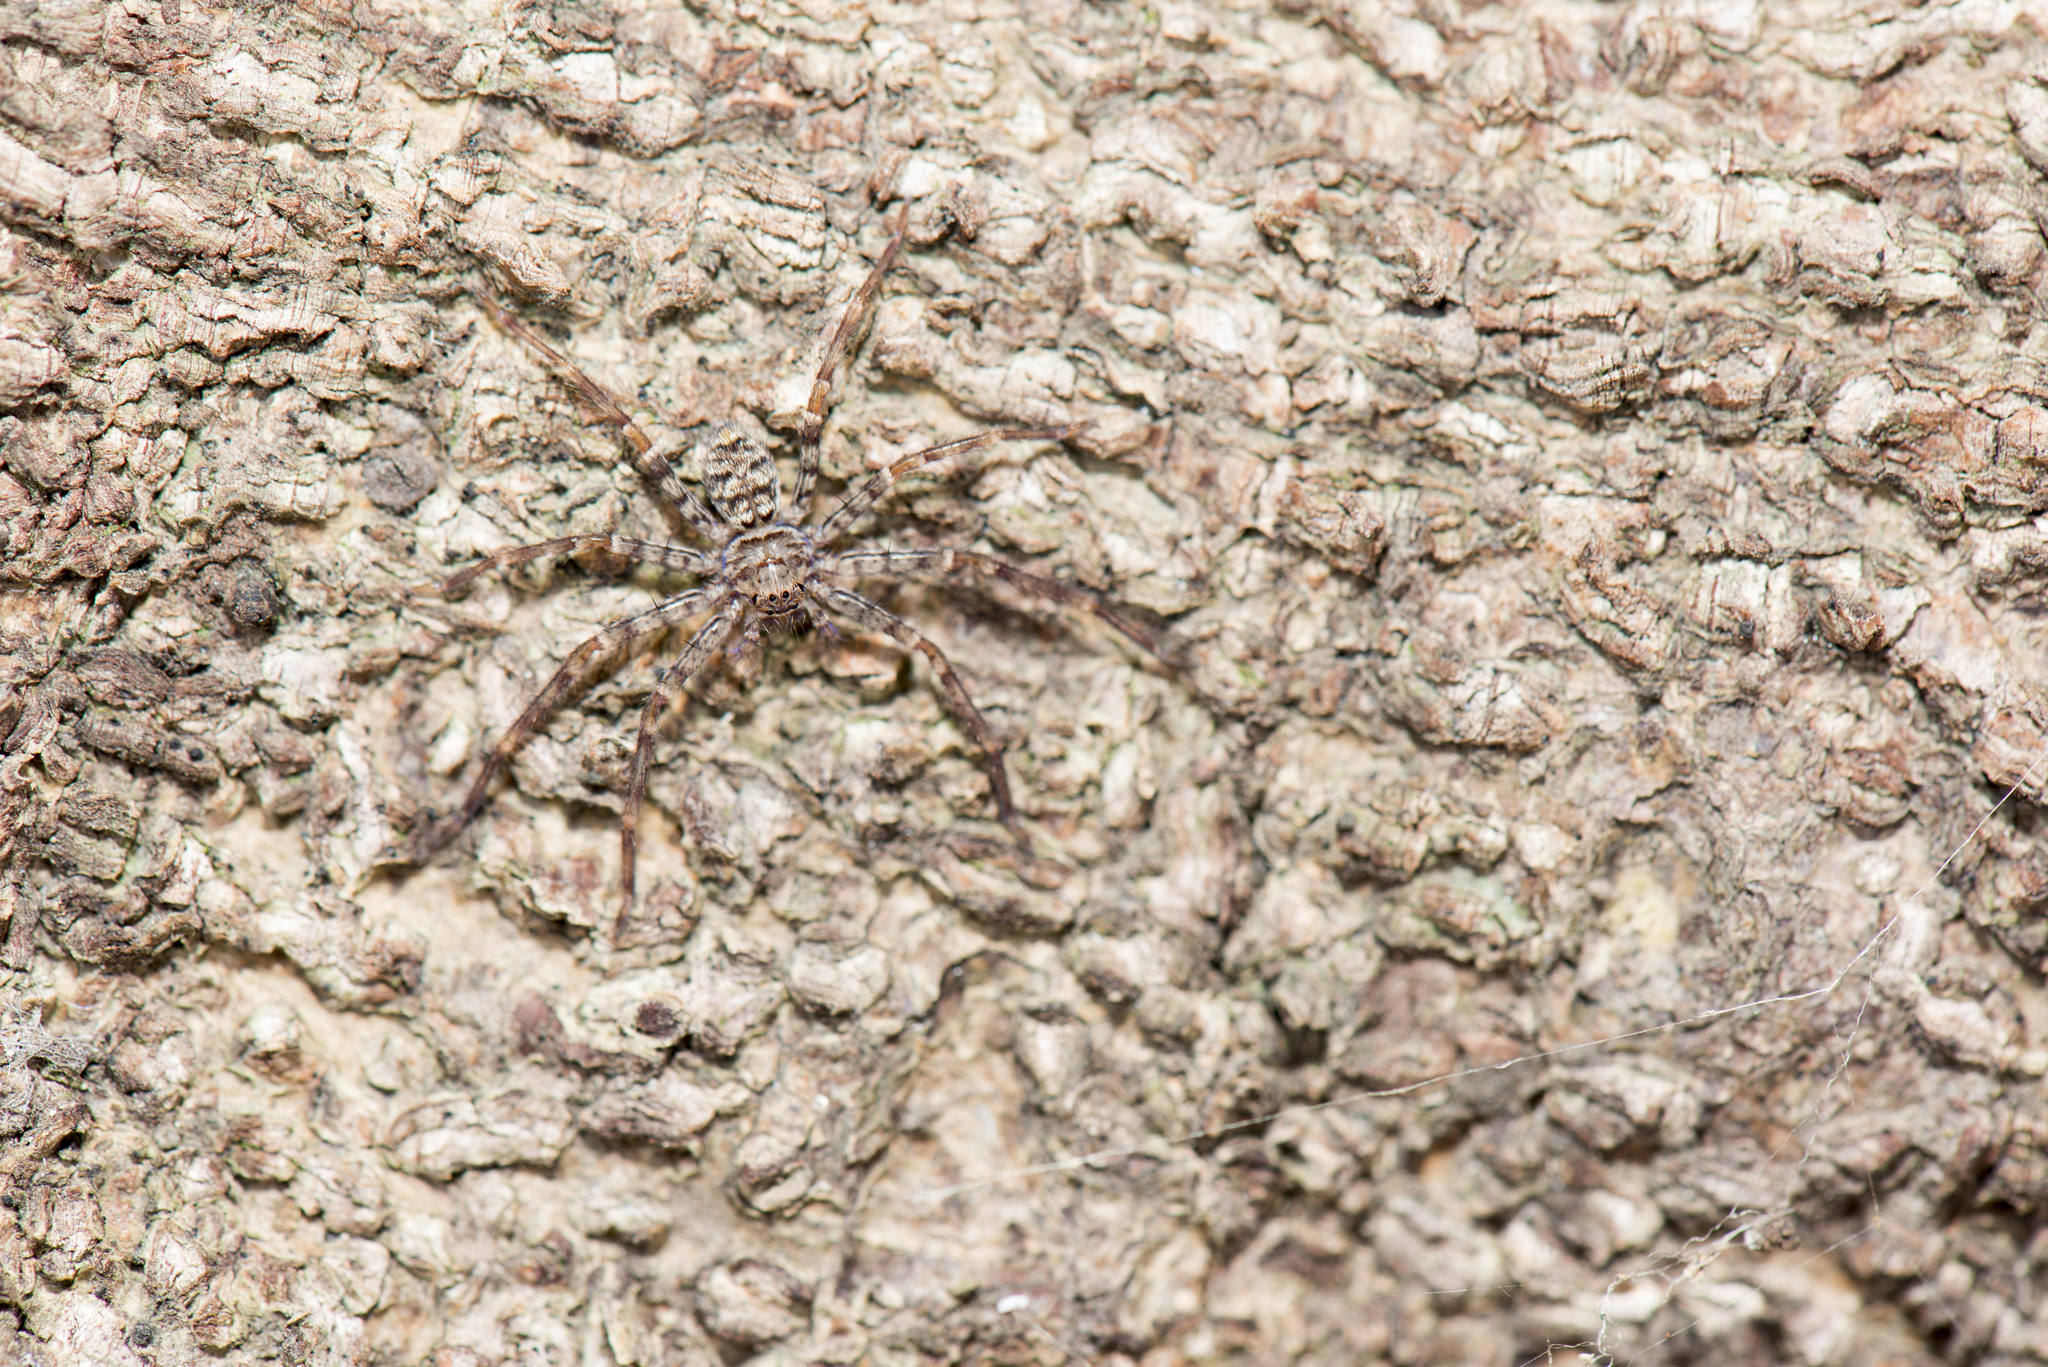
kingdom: Animalia
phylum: Arthropoda
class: Arachnida
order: Araneae
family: Sparassidae
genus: Heteropoda
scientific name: Heteropoda venatoria
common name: Huntsman spider
